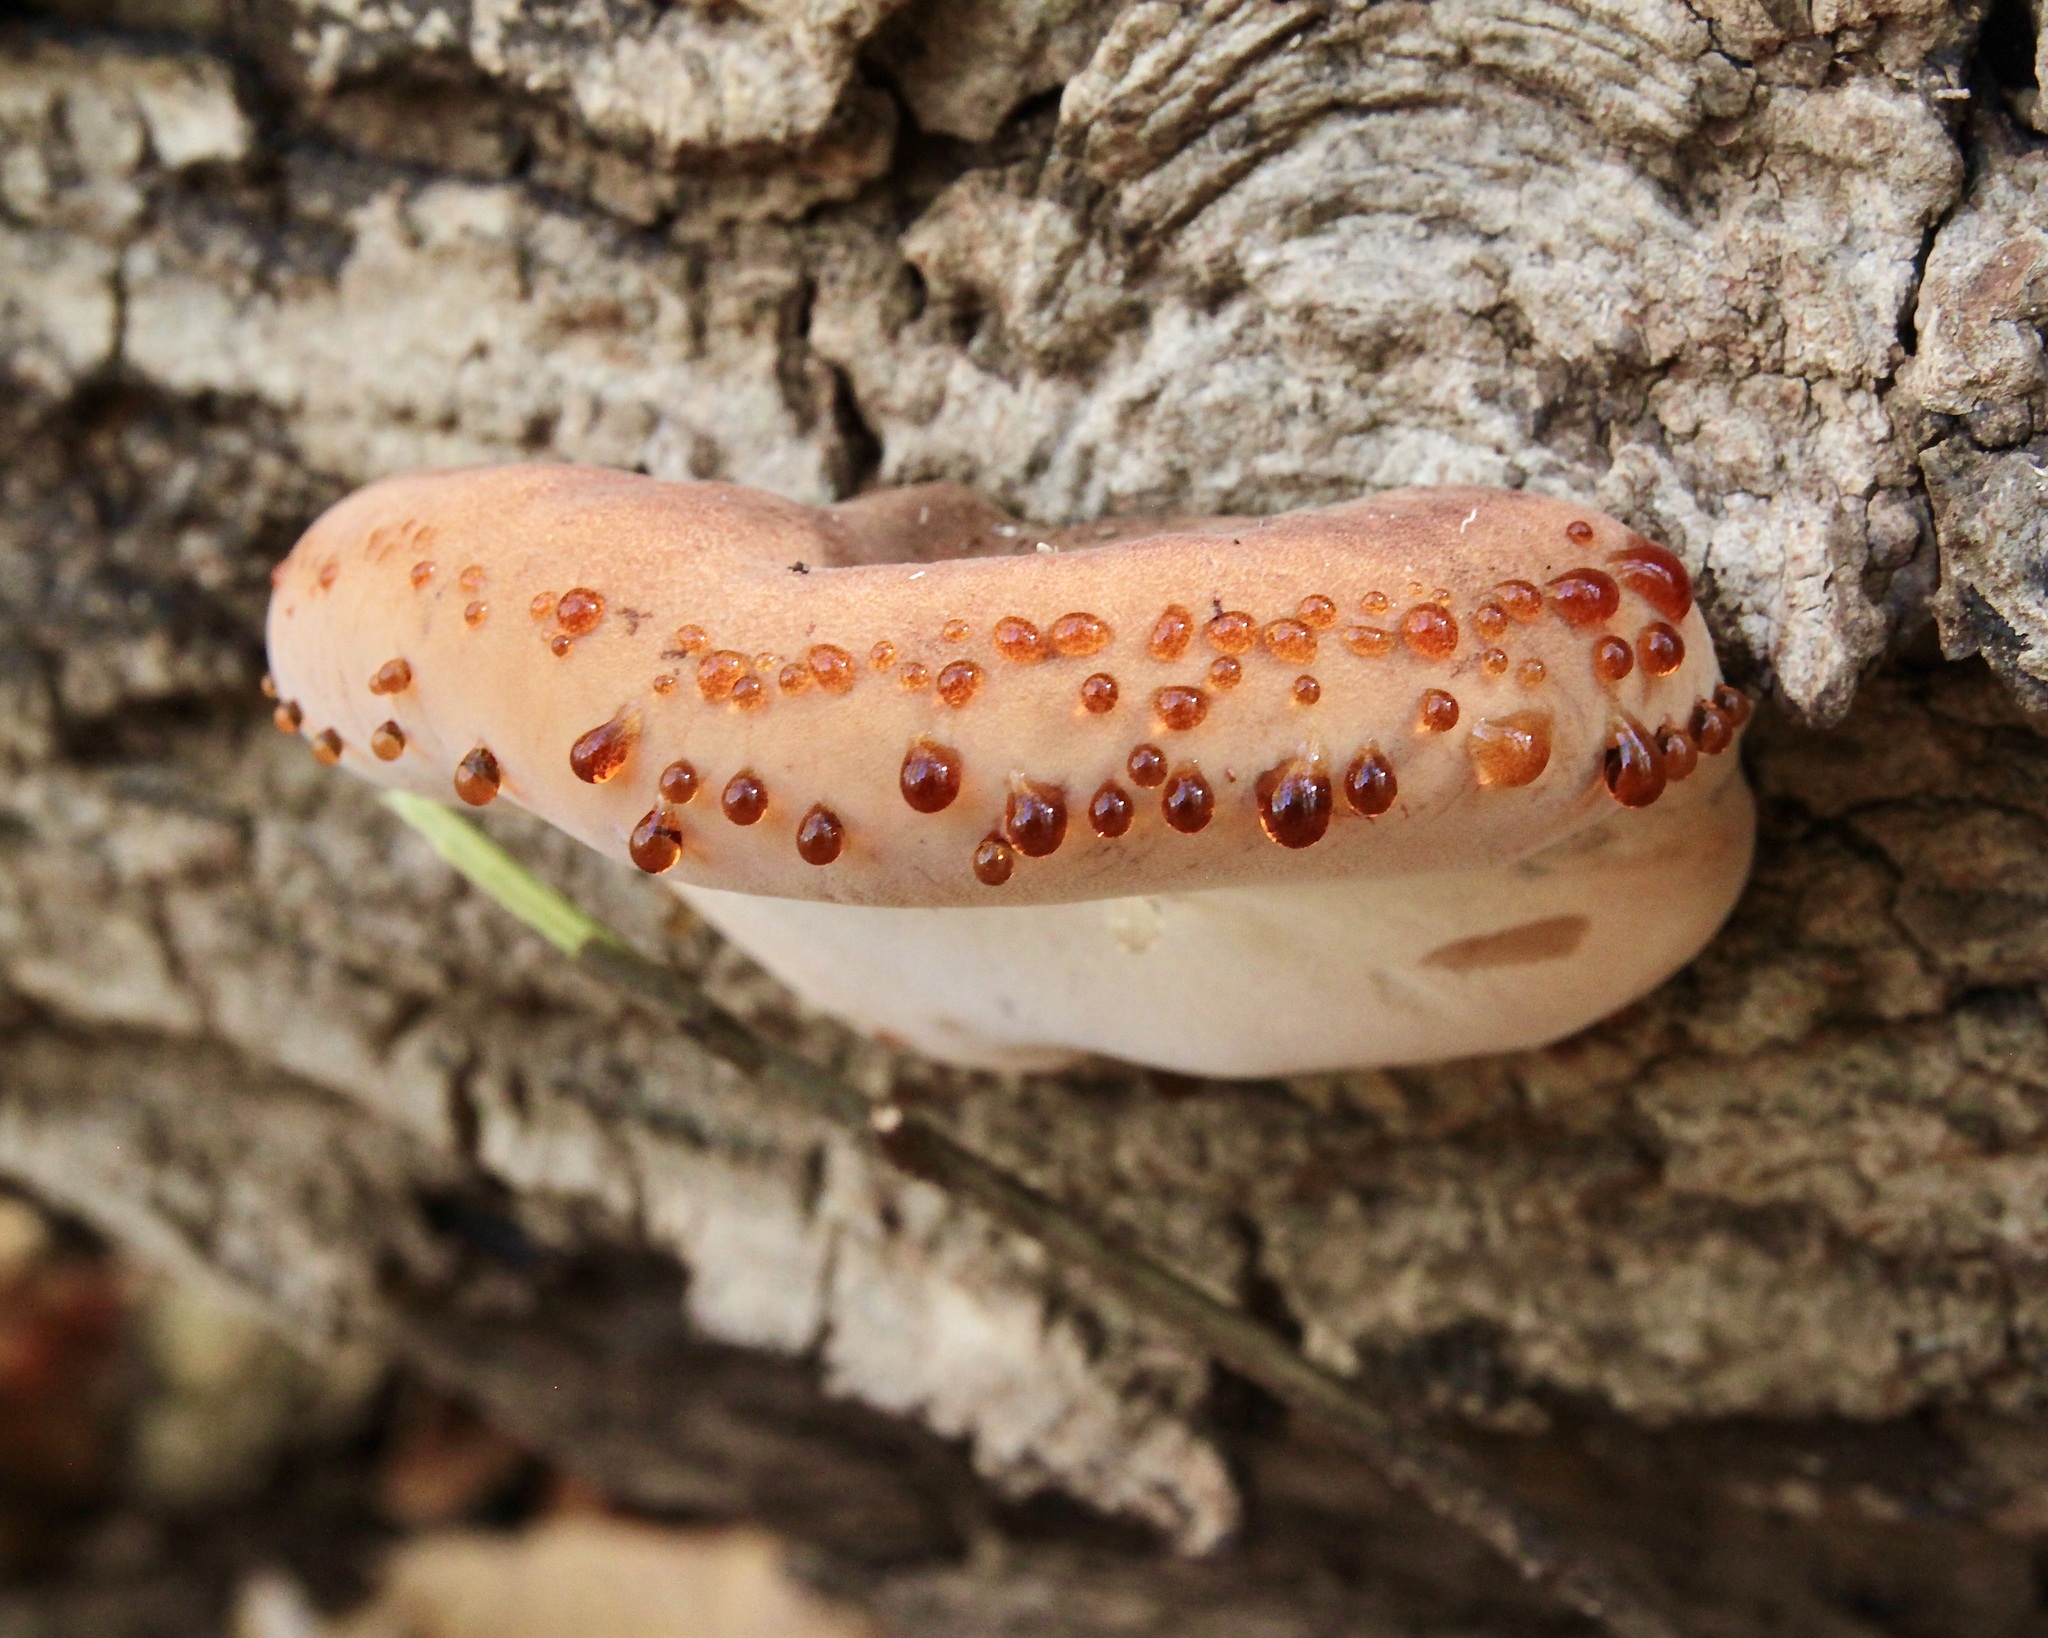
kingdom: Fungi
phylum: Basidiomycota
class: Agaricomycetes
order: Polyporales
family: Ischnodermataceae
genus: Ischnoderma
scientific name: Ischnoderma resinosum
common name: Resinous polypore
